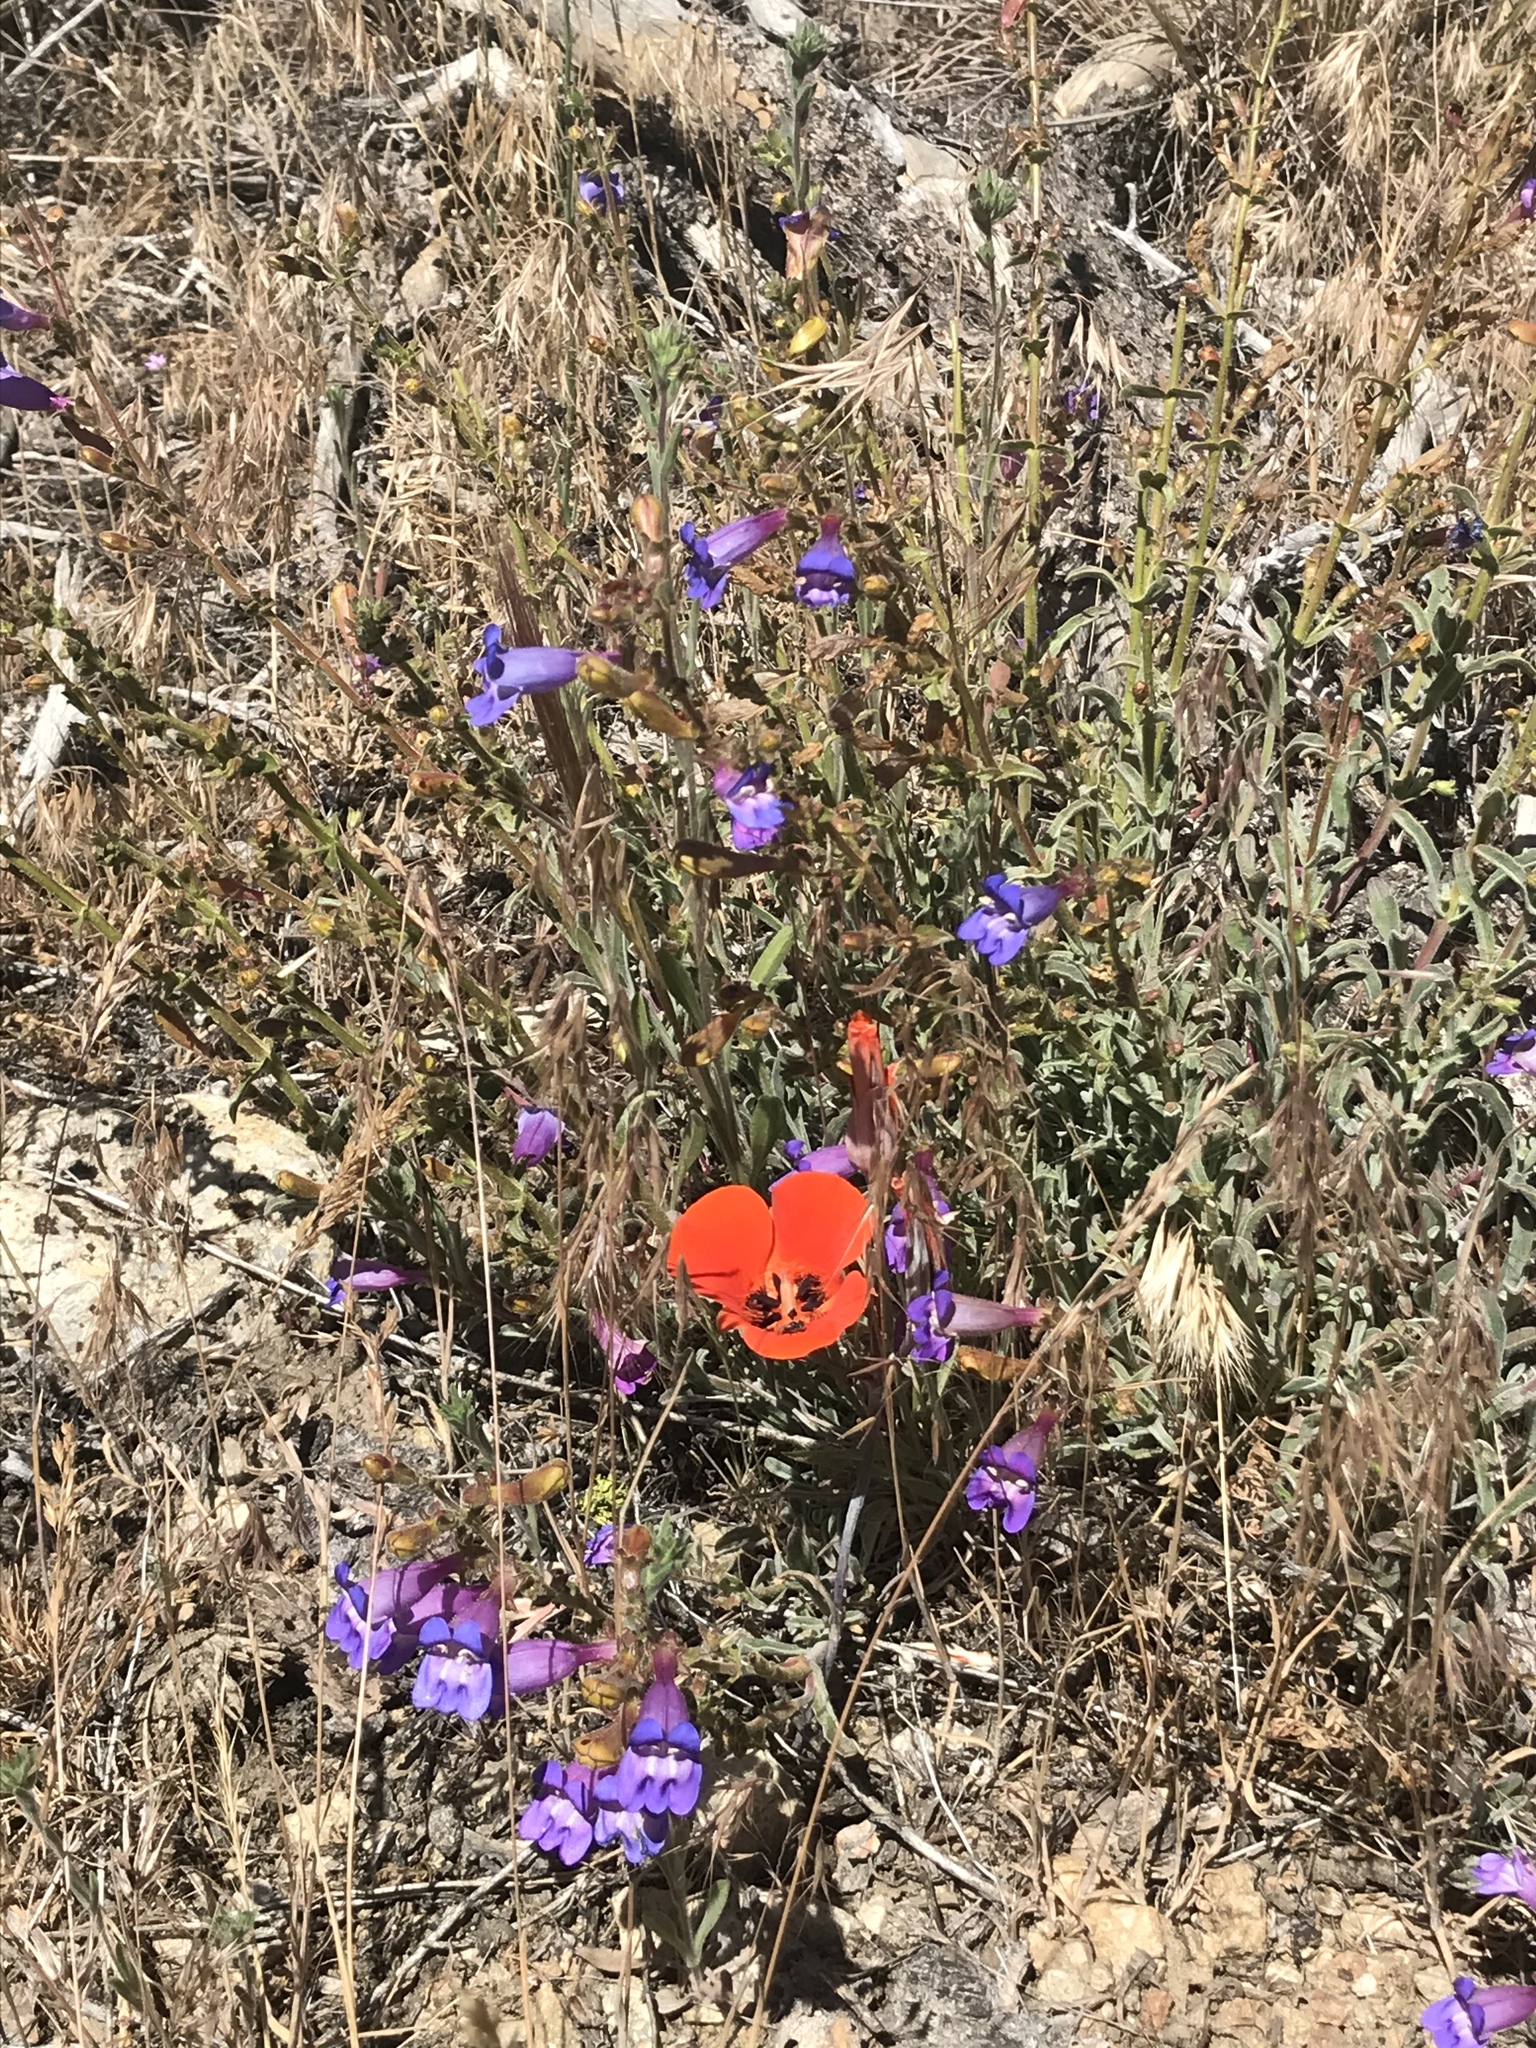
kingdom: Plantae
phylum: Tracheophyta
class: Liliopsida
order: Liliales
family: Liliaceae
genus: Calochortus
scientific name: Calochortus kennedyi
